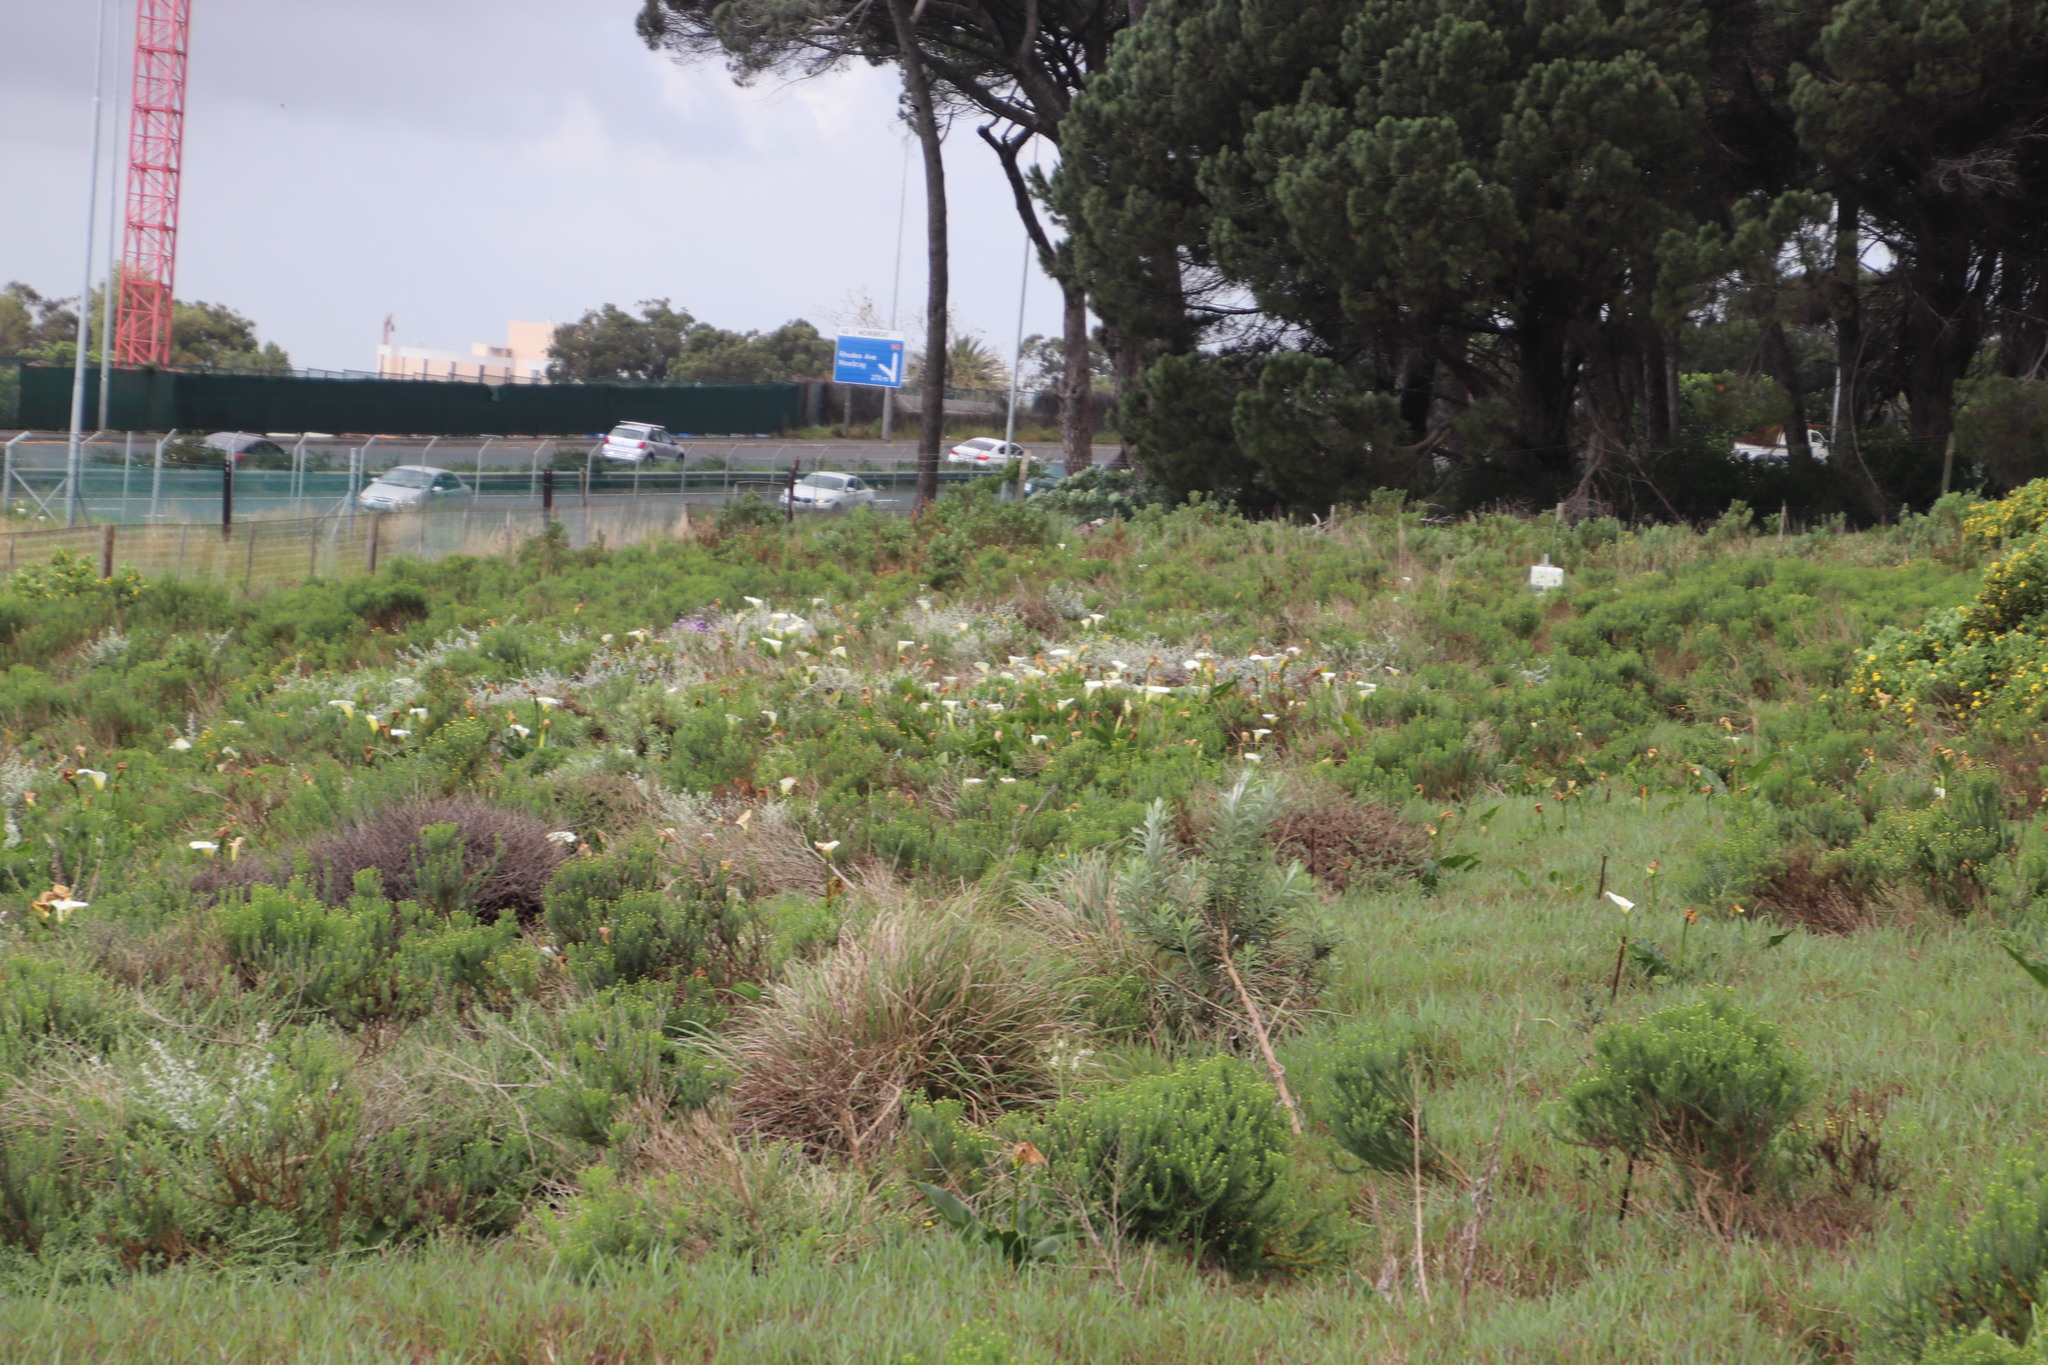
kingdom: Plantae
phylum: Tracheophyta
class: Liliopsida
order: Alismatales
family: Araceae
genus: Zantedeschia
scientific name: Zantedeschia aethiopica
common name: Altar-lily
